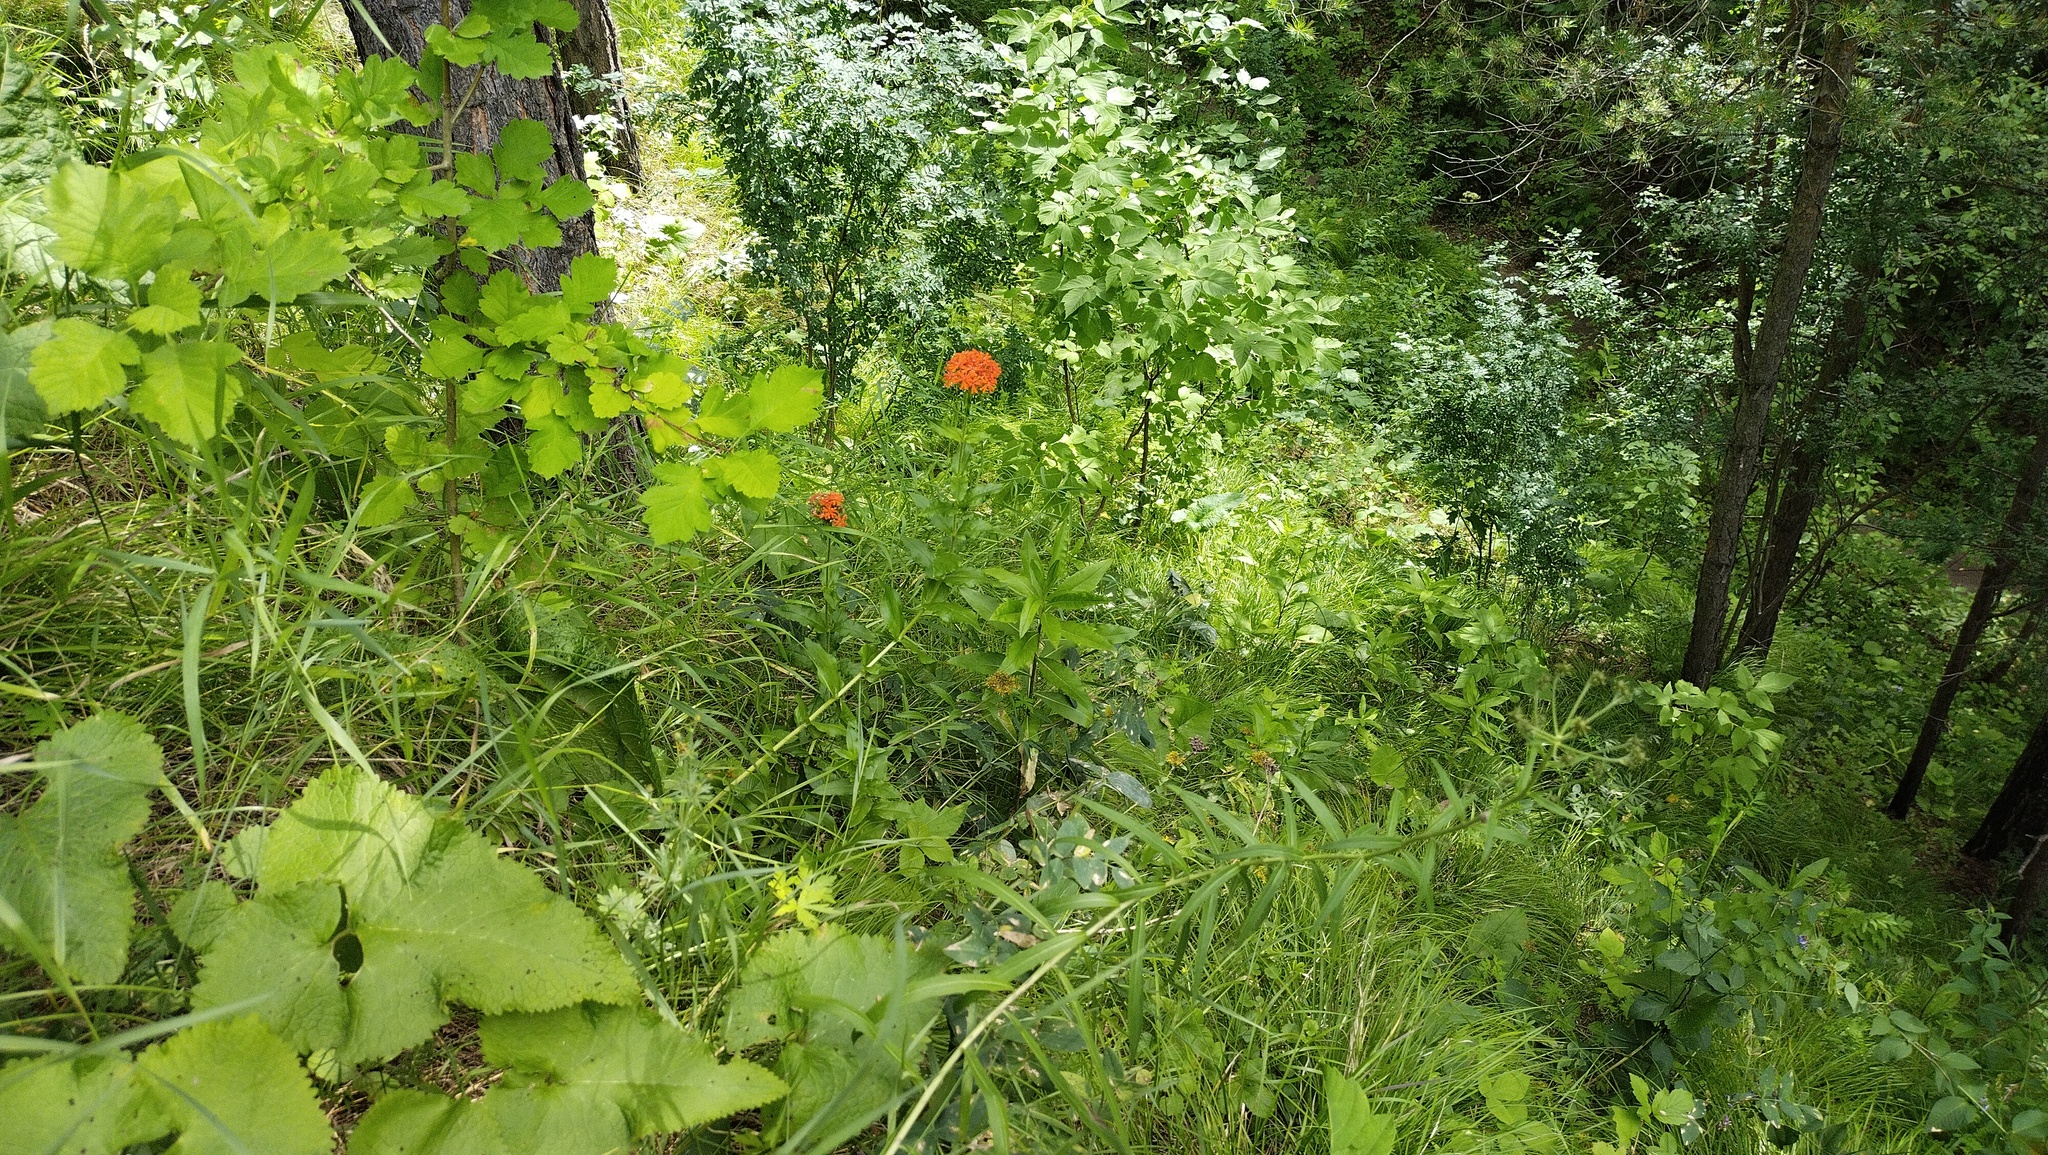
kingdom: Plantae
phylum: Tracheophyta
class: Magnoliopsida
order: Caryophyllales
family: Caryophyllaceae
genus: Silene
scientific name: Silene chalcedonica
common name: Maltese-cross
